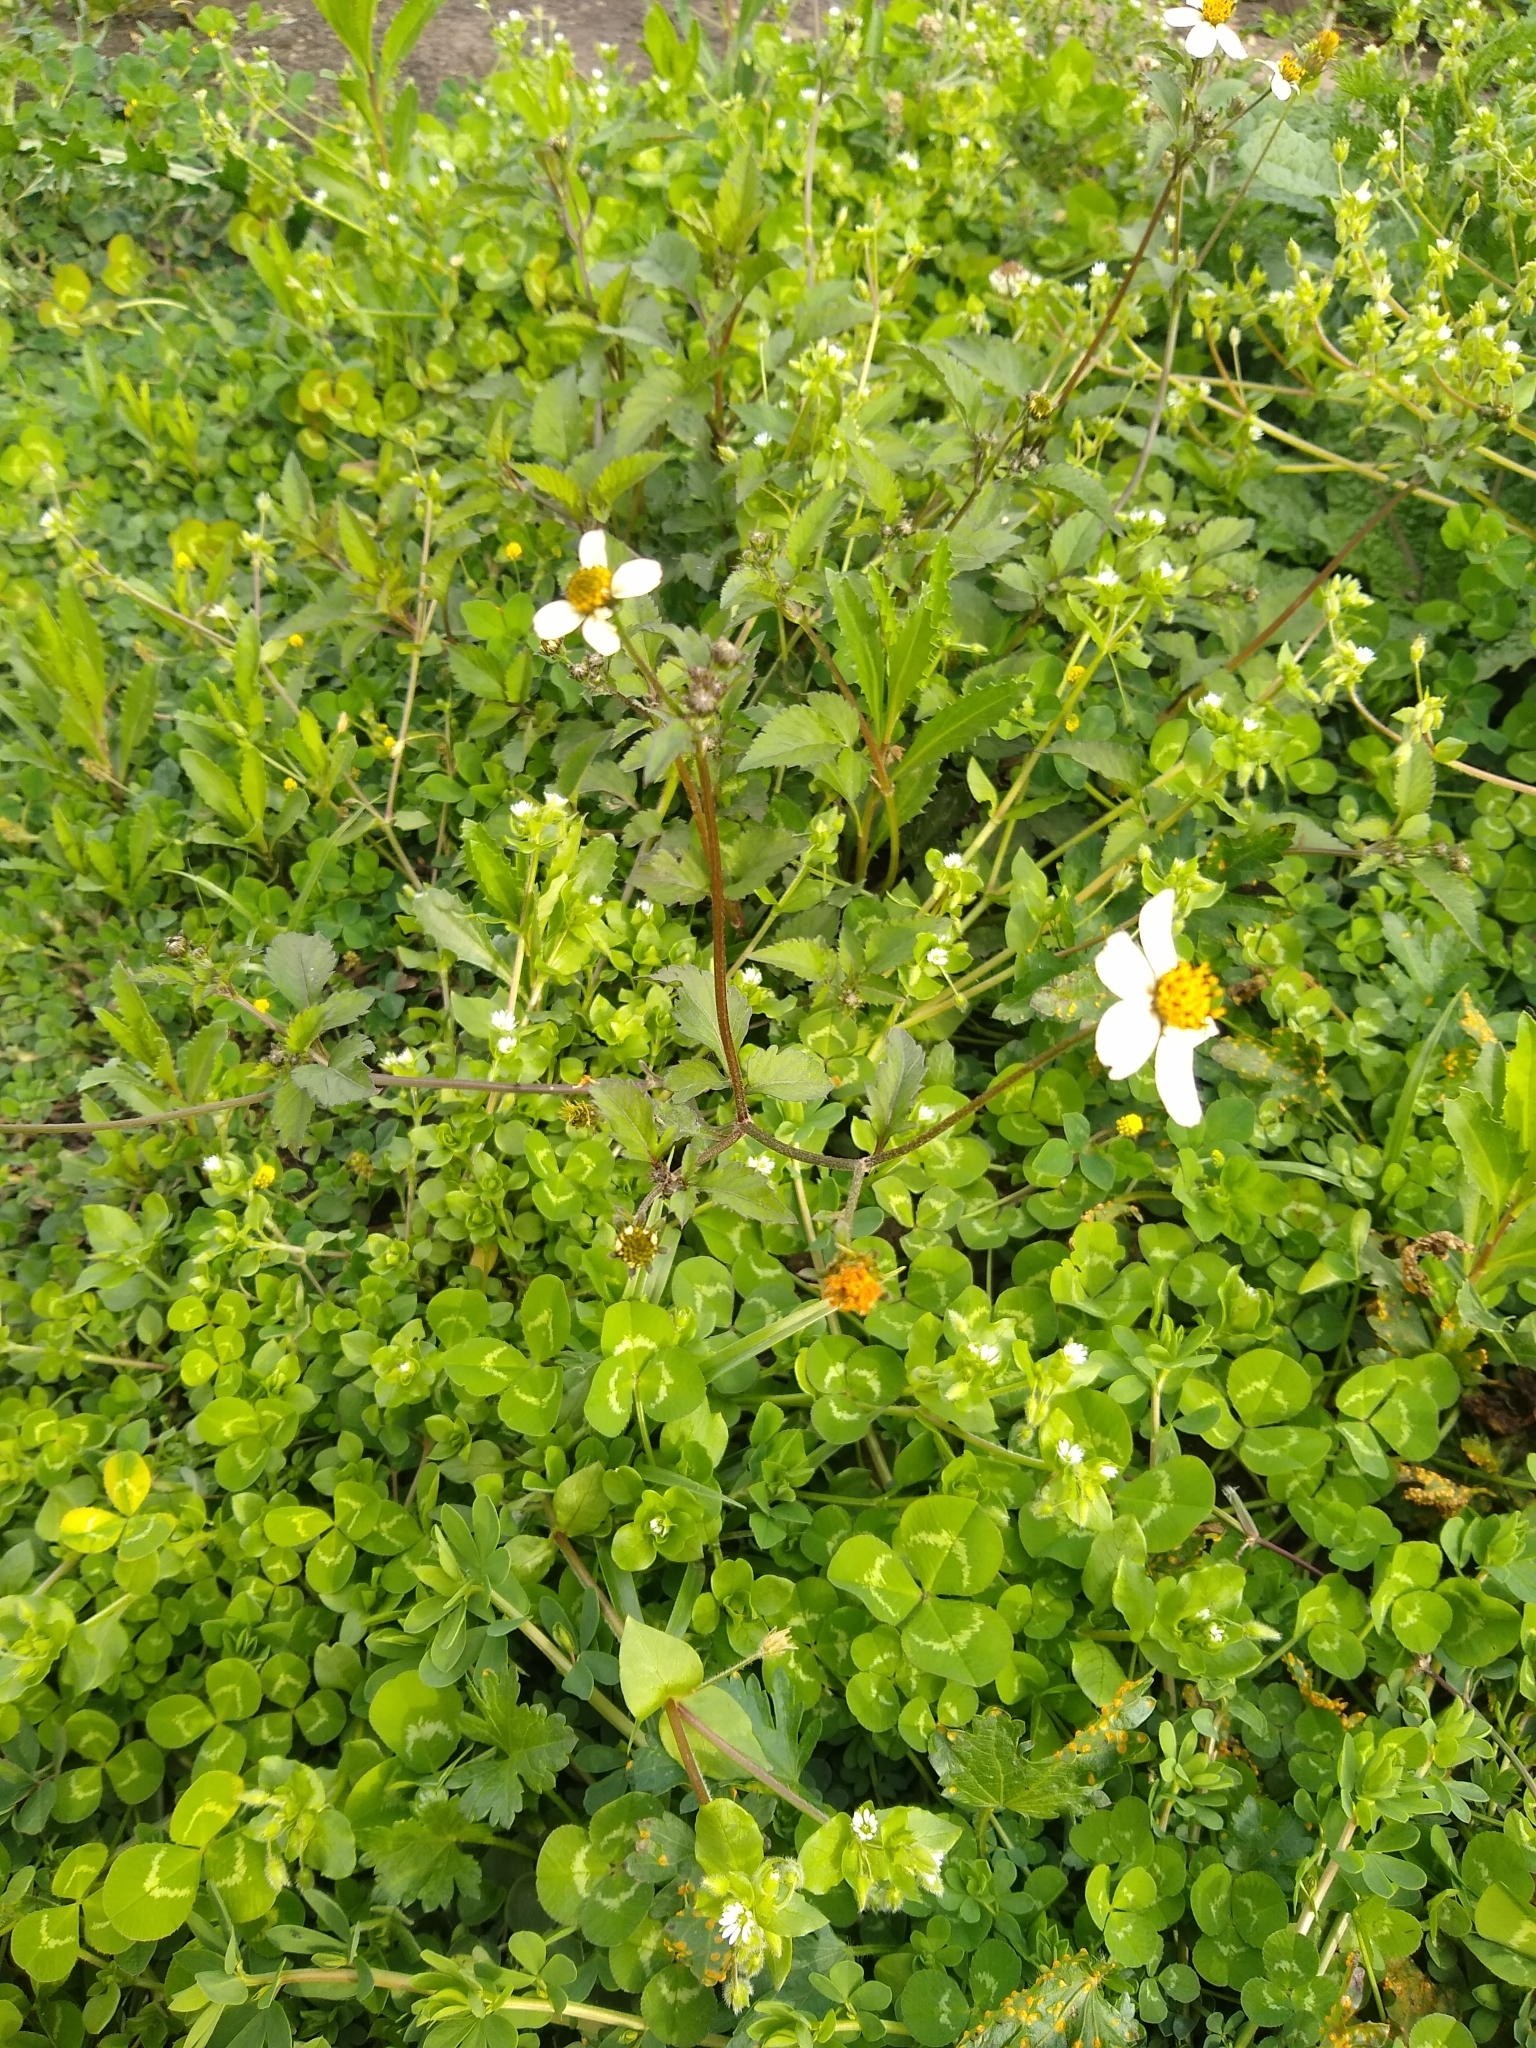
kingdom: Plantae
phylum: Tracheophyta
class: Magnoliopsida
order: Asterales
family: Asteraceae
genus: Bidens
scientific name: Bidens pilosa
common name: Black-jack
